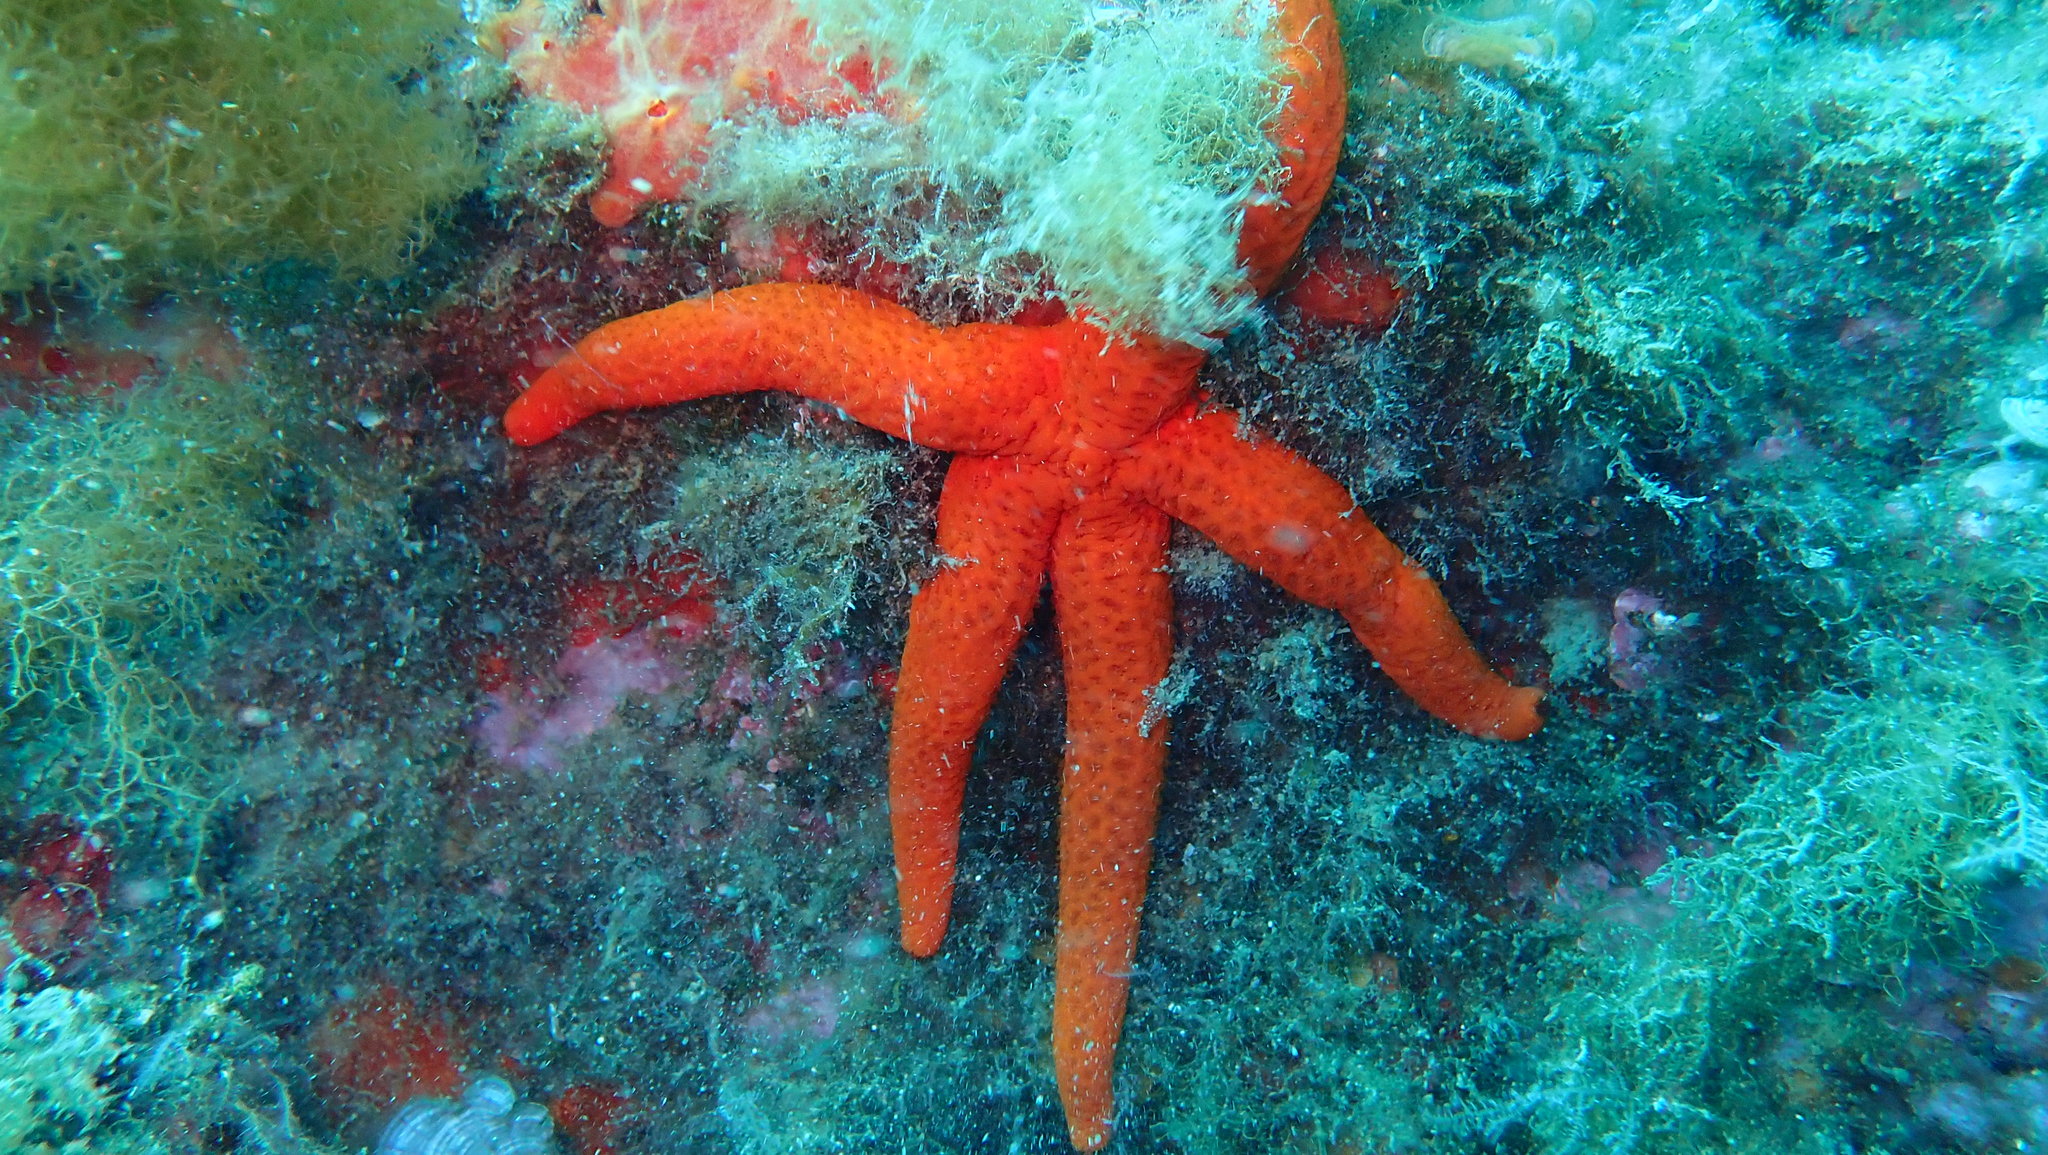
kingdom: Animalia
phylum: Echinodermata
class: Asteroidea
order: Spinulosida
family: Echinasteridae
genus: Echinaster
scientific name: Echinaster sepositus
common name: Red starfish
